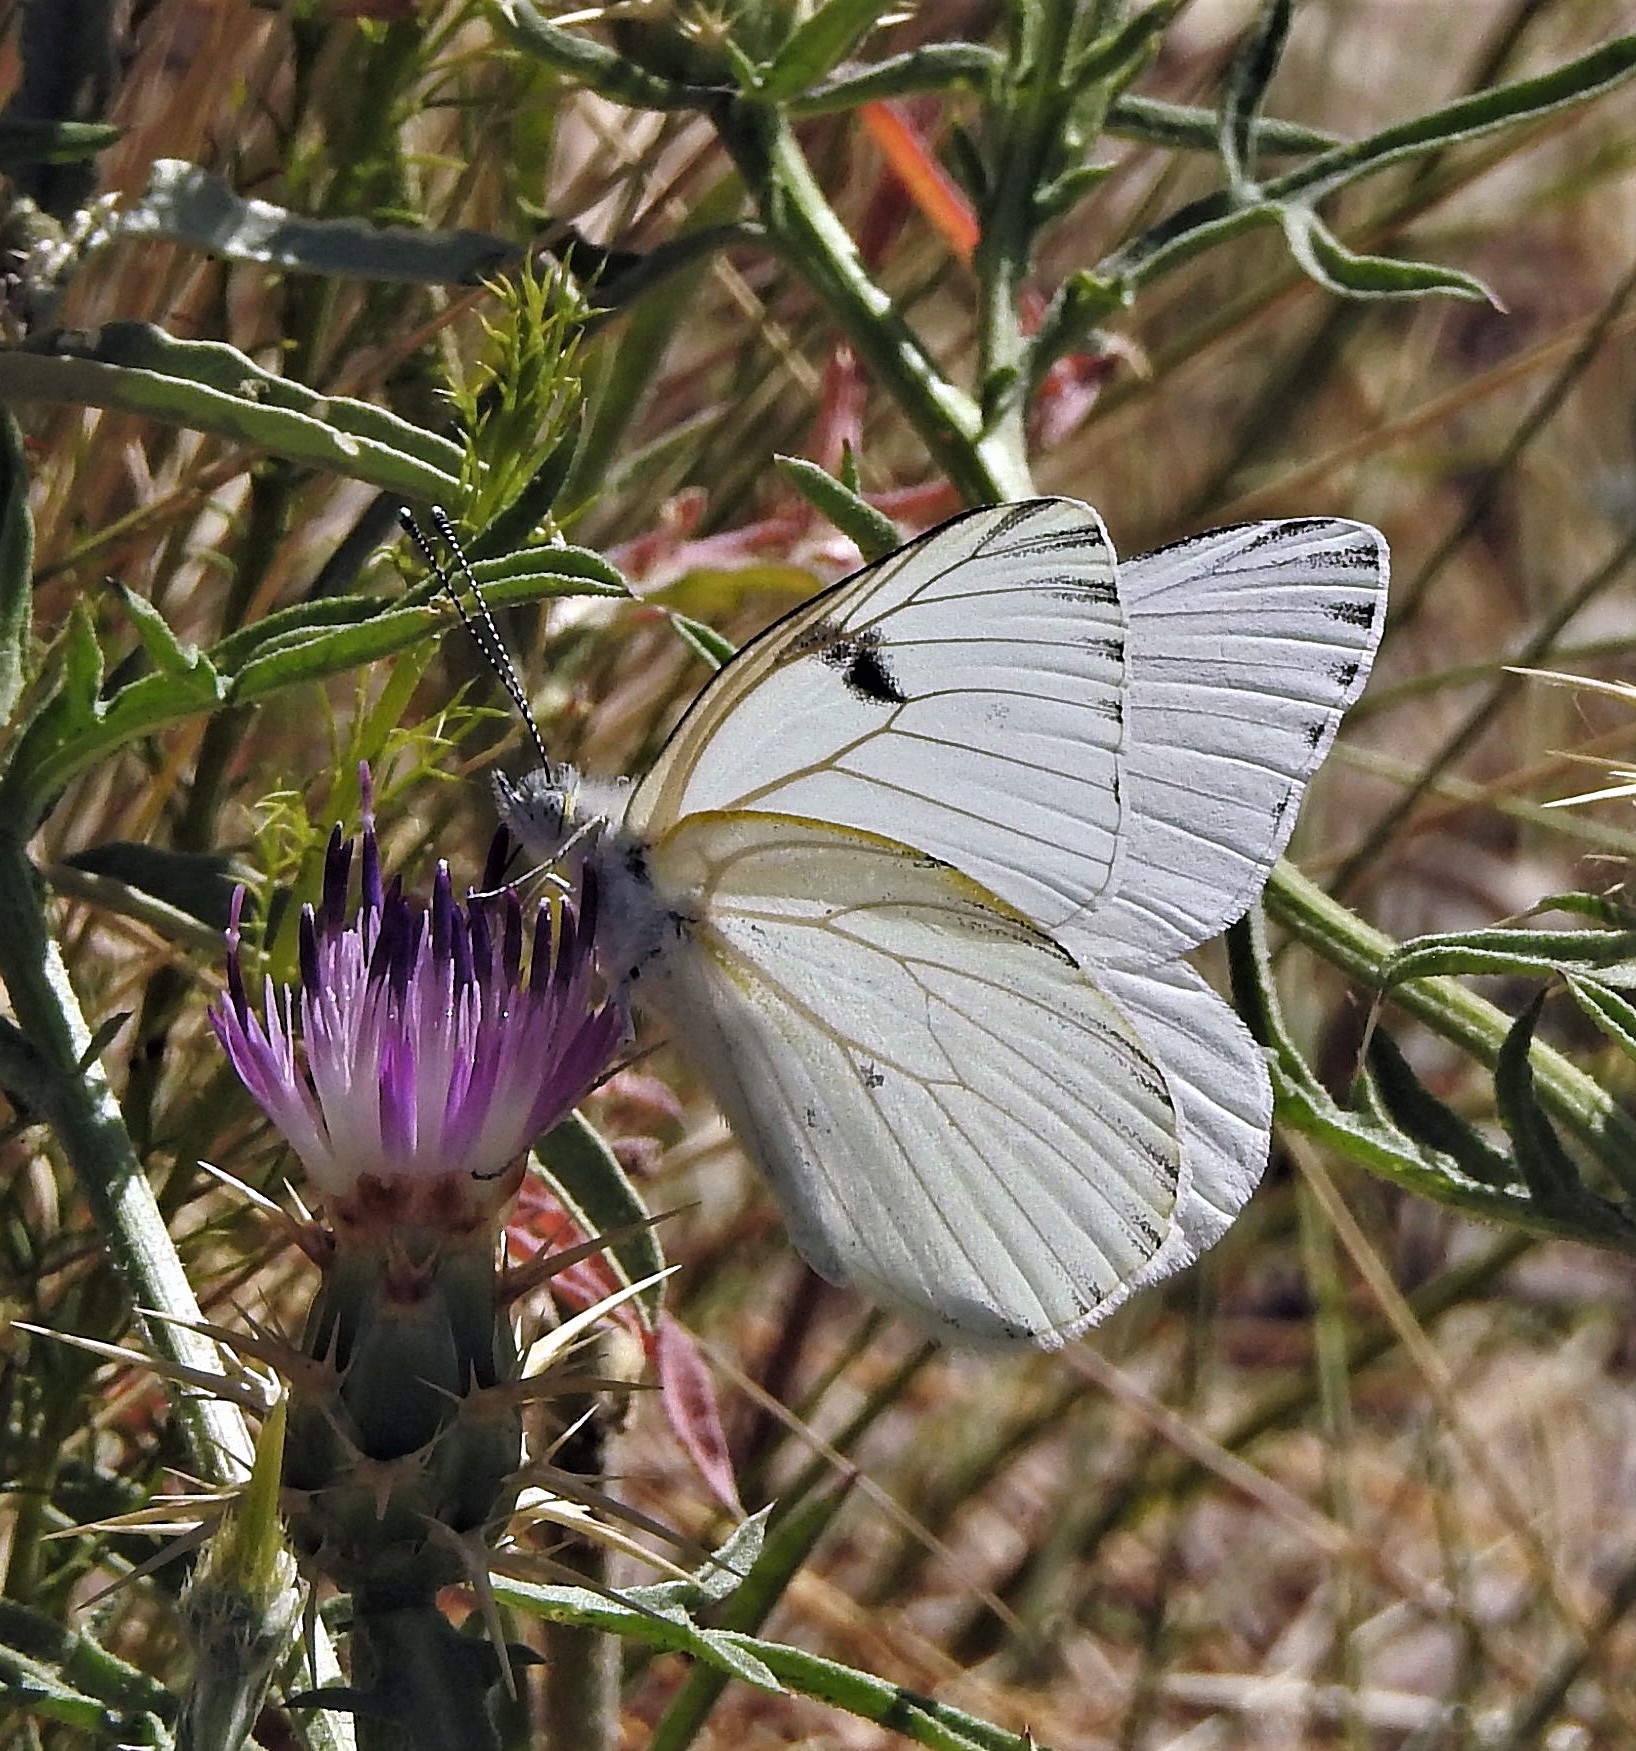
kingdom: Animalia
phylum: Arthropoda
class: Insecta
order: Lepidoptera
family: Pieridae
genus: Tatochila
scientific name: Tatochila mercedis
